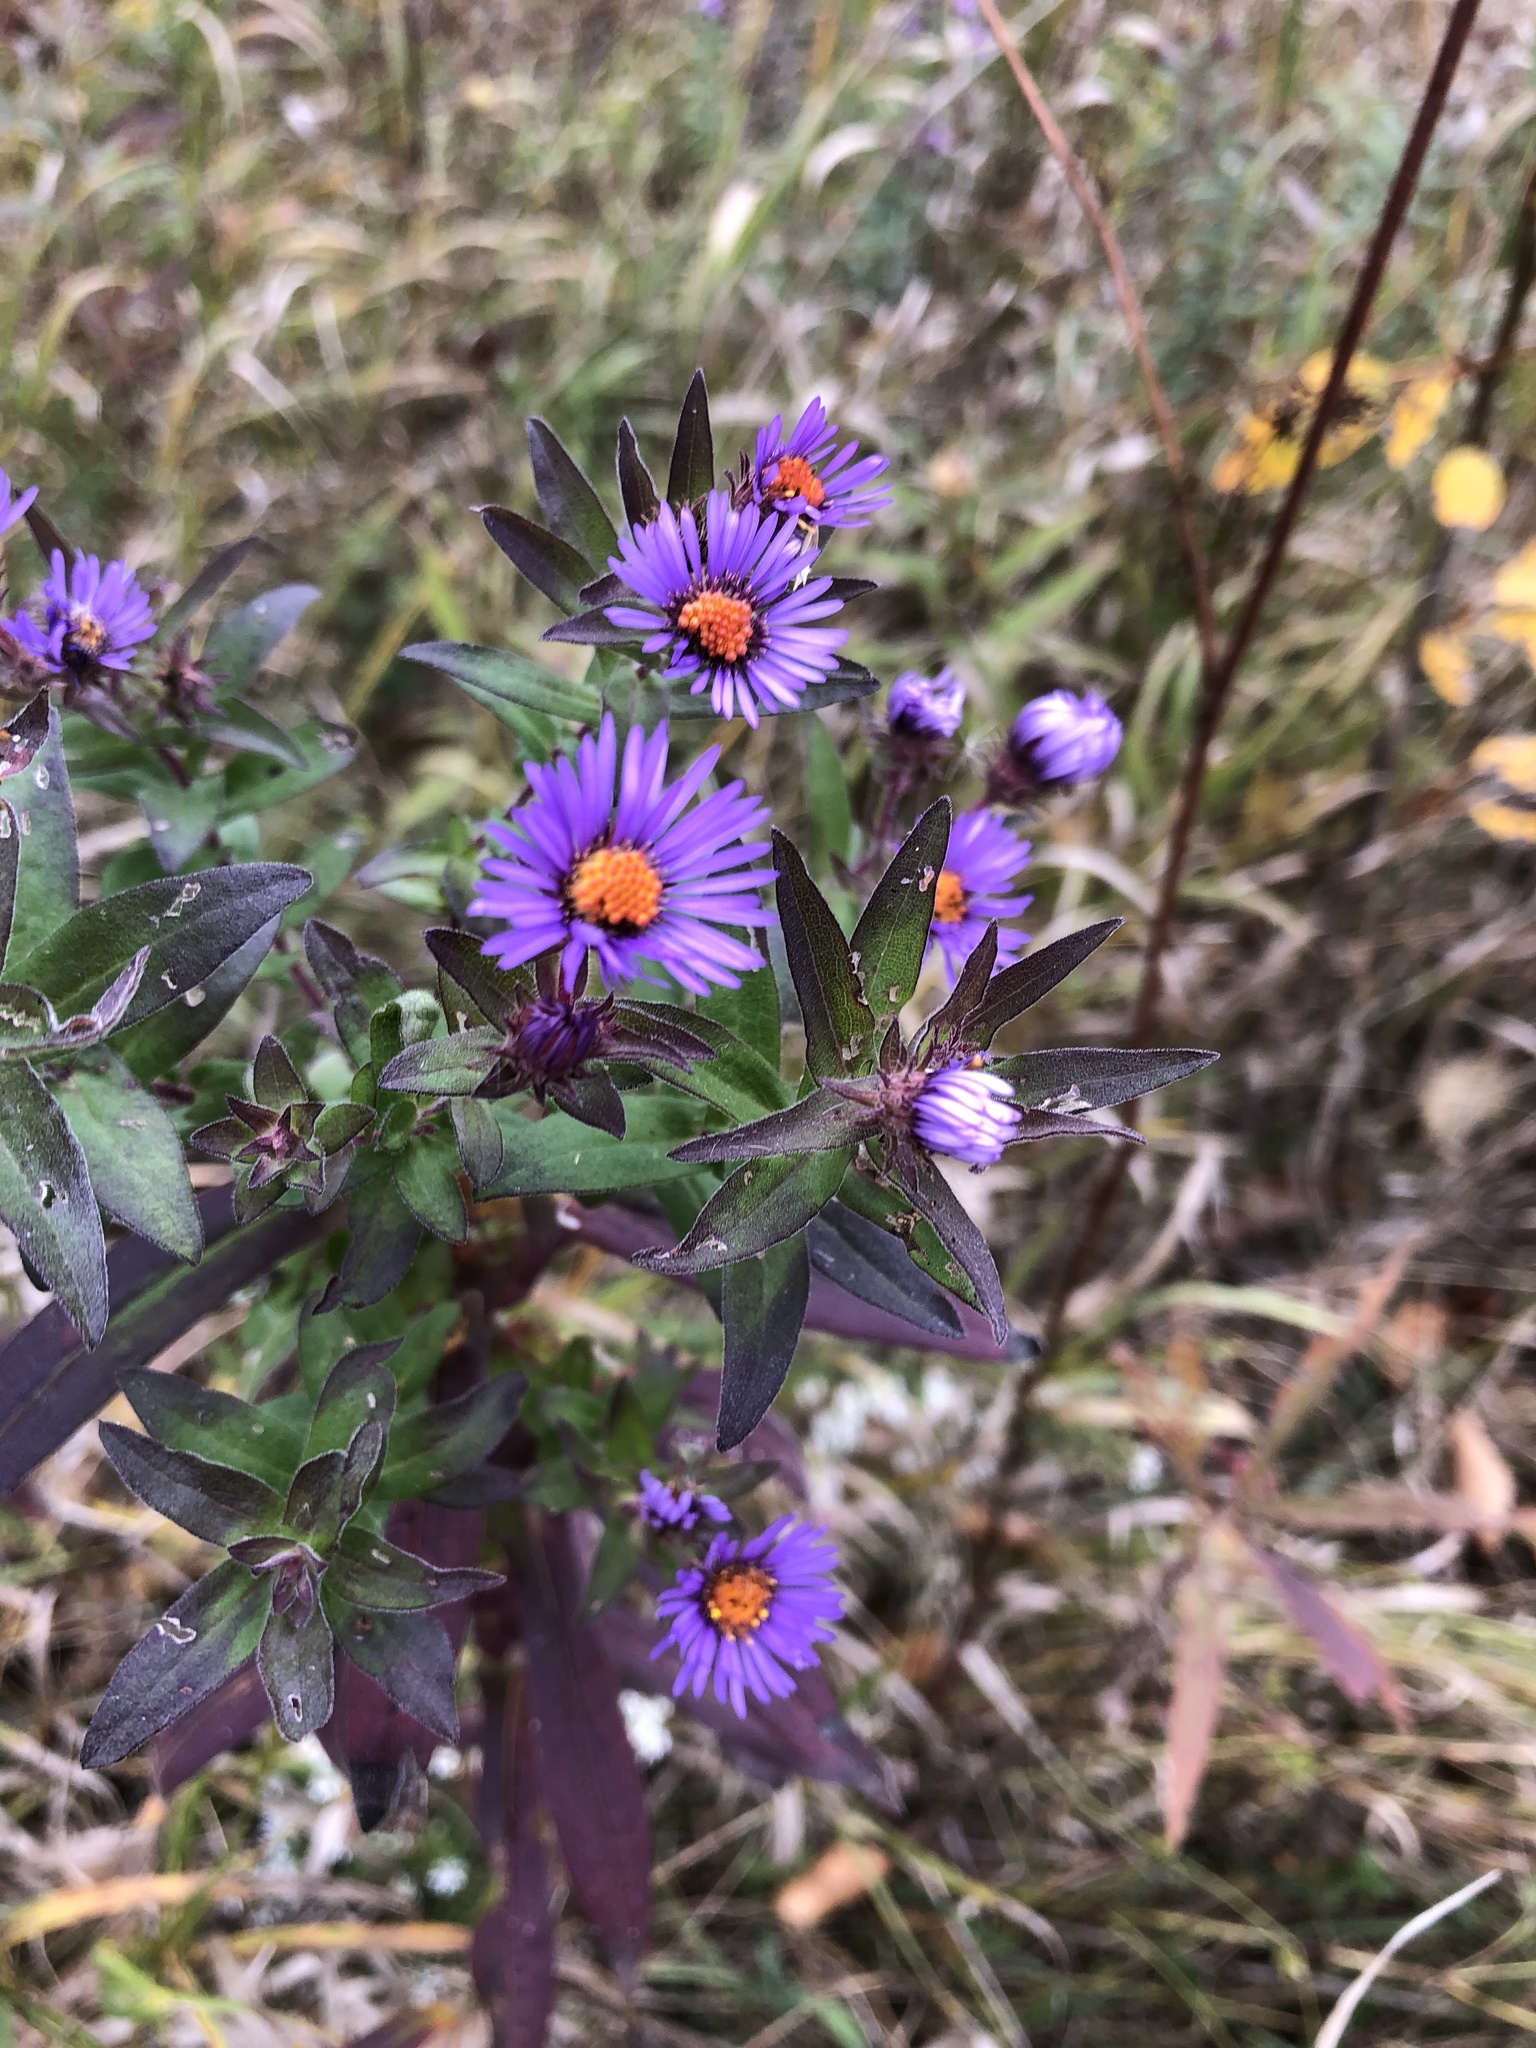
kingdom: Plantae
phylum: Tracheophyta
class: Magnoliopsida
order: Asterales
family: Asteraceae
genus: Symphyotrichum
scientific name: Symphyotrichum novae-angliae
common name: Michaelmas daisy
